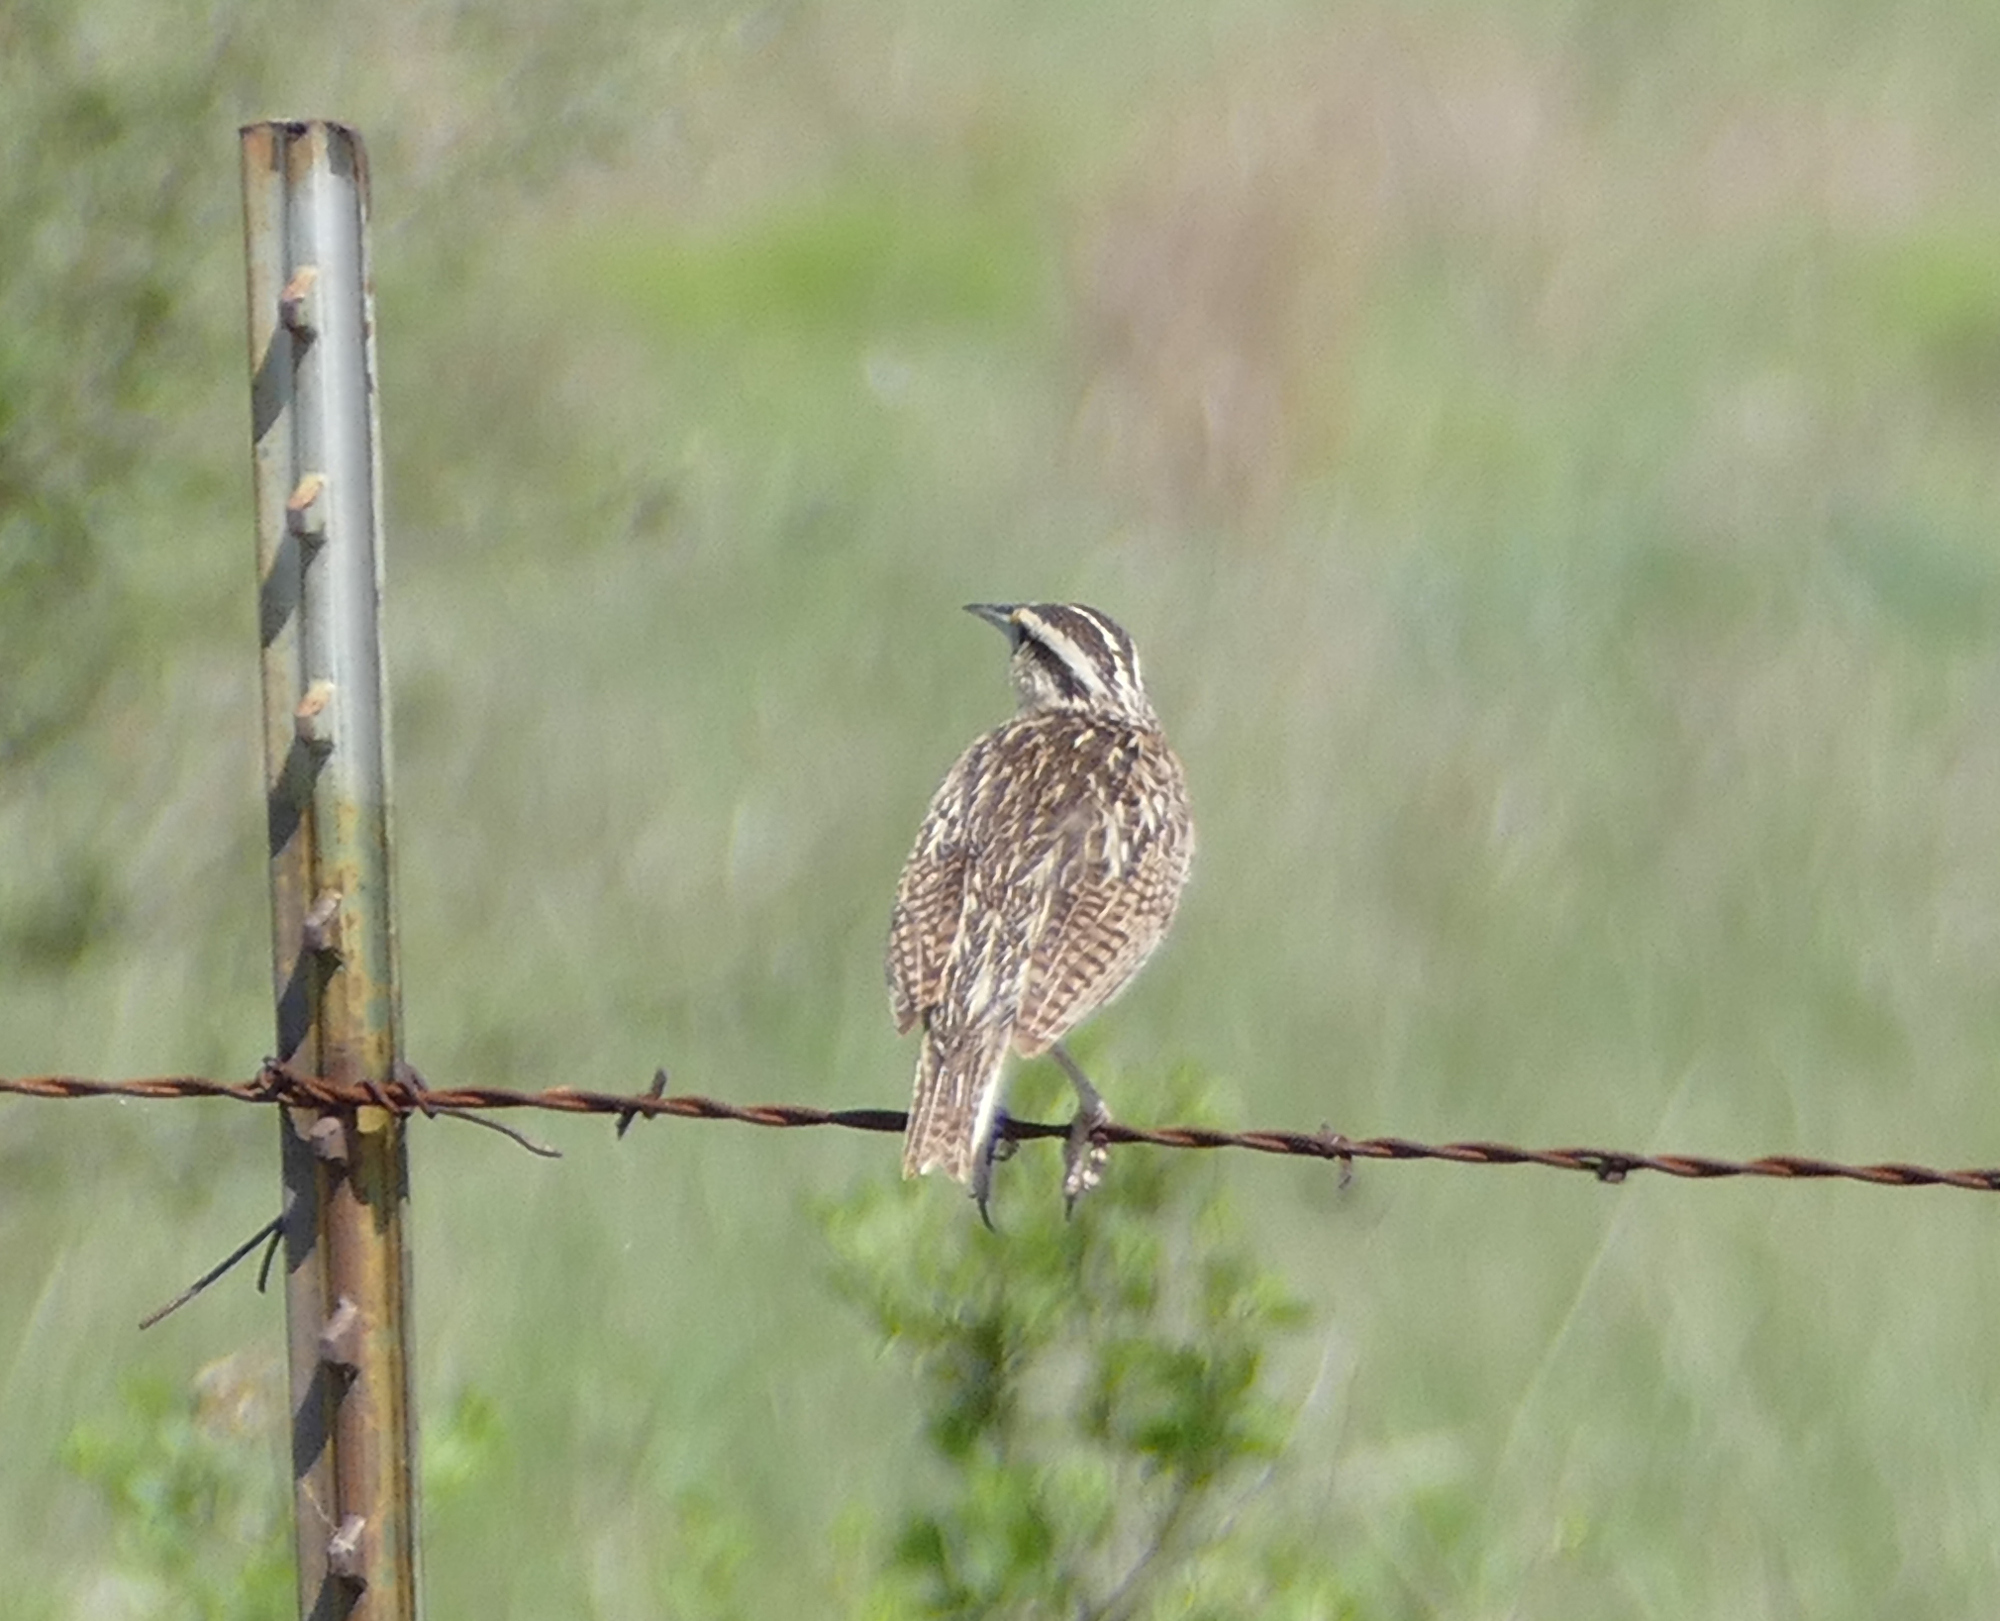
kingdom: Animalia
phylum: Chordata
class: Aves
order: Passeriformes
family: Icteridae
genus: Sturnella
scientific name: Sturnella lilianae
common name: Lilian's meadowlark
